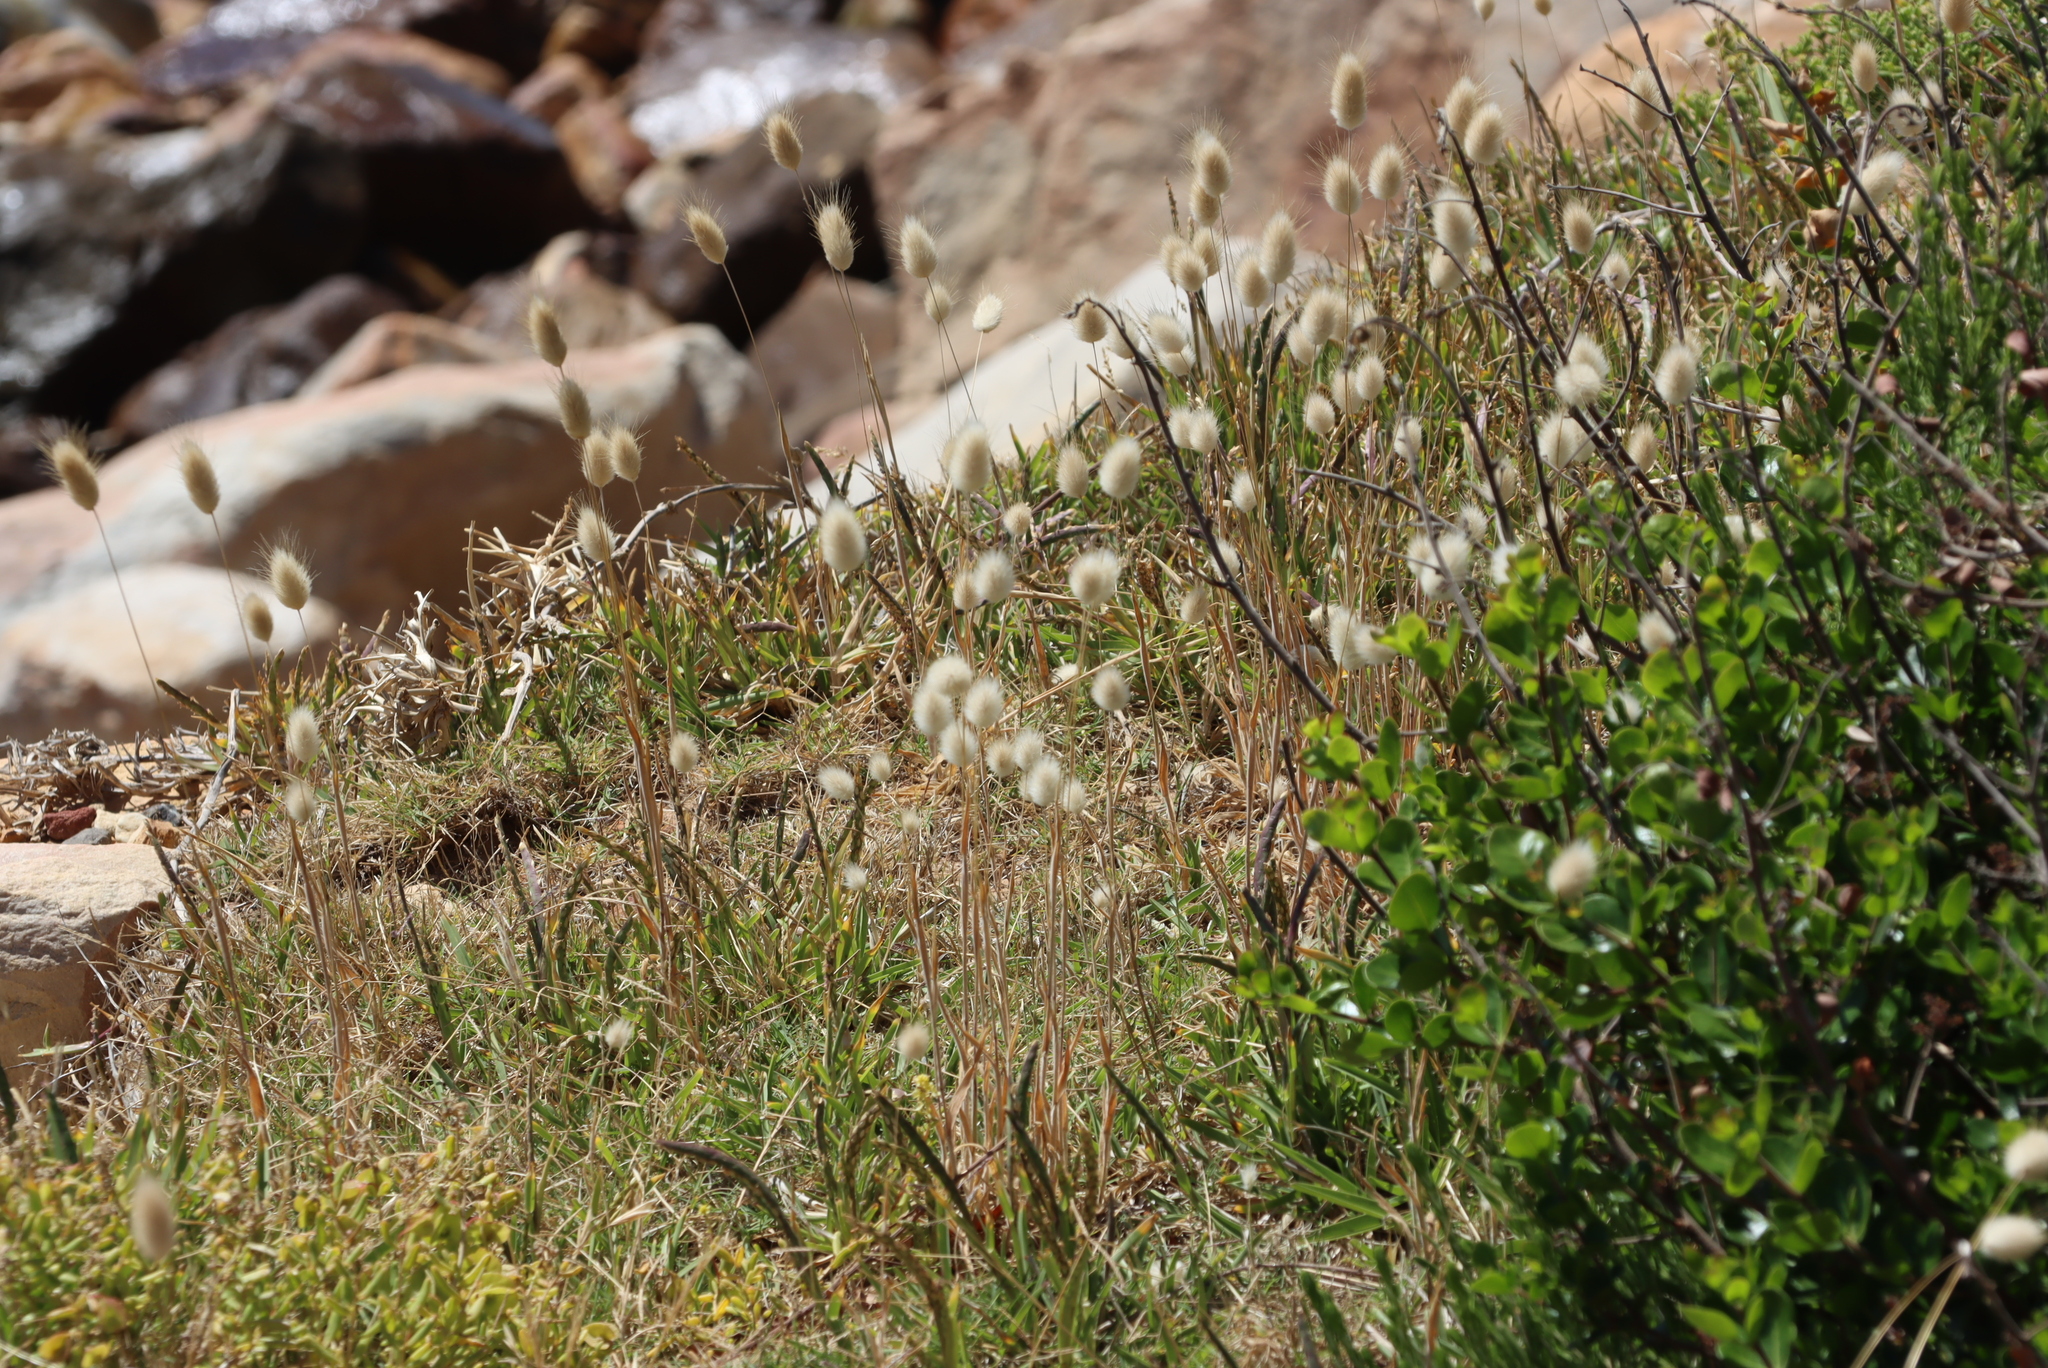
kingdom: Plantae
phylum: Tracheophyta
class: Liliopsida
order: Poales
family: Poaceae
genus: Lagurus
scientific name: Lagurus ovatus
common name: Hare's-tail
